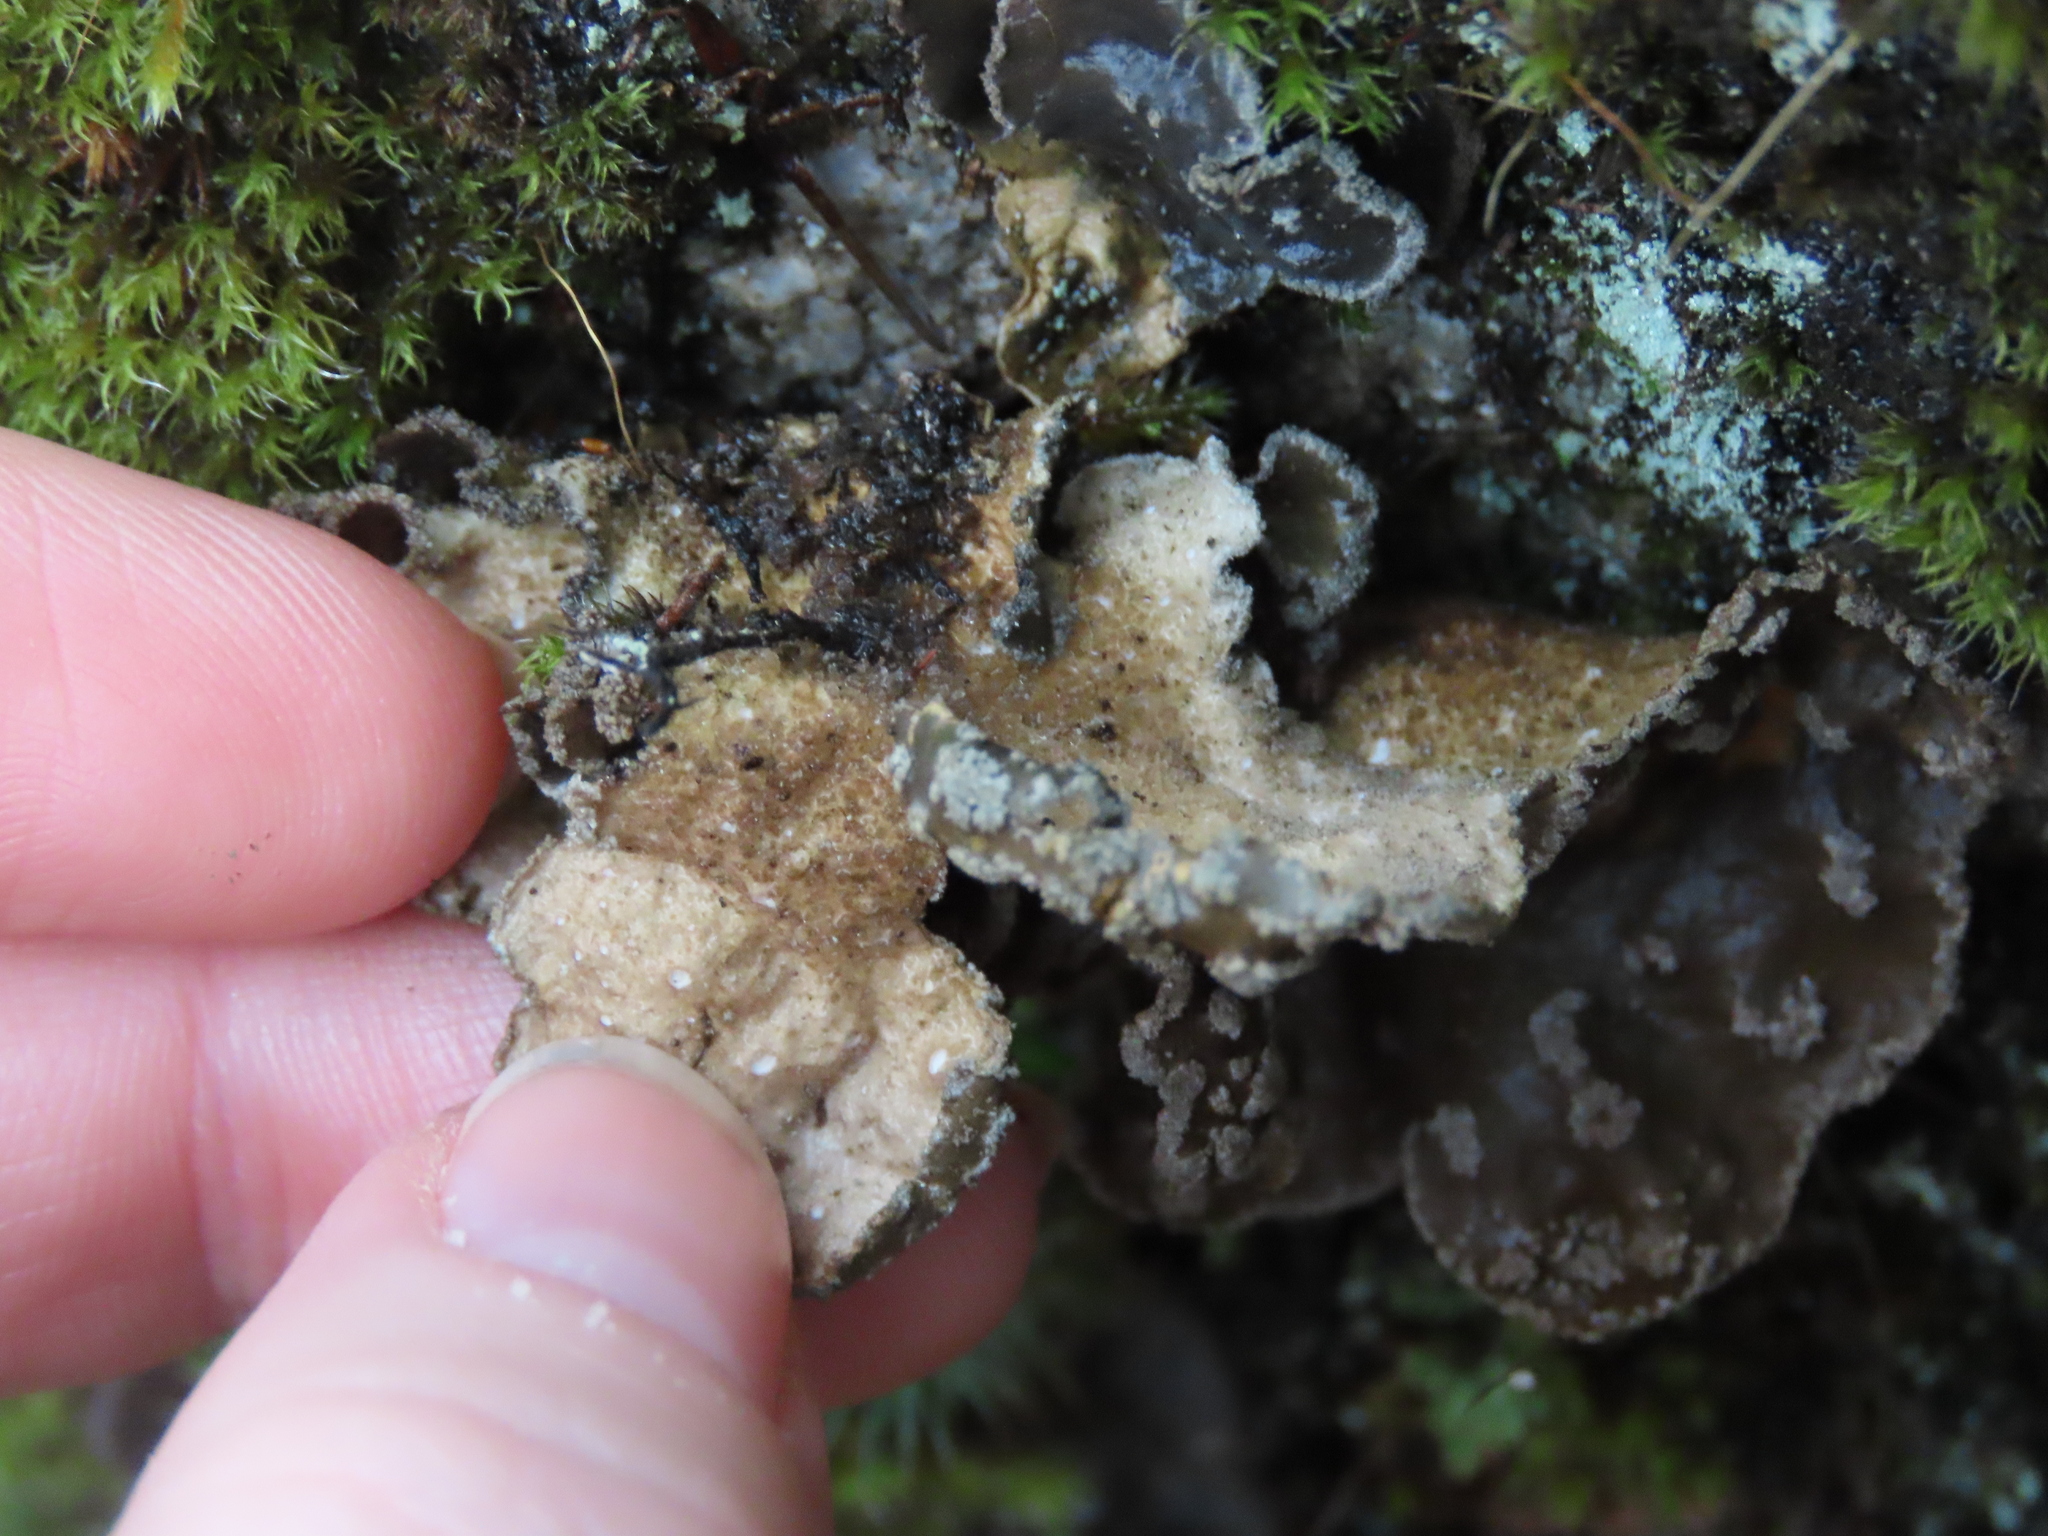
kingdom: Fungi
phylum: Ascomycota
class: Lecanoromycetes
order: Peltigerales
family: Lobariaceae
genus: Sticta
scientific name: Sticta limbata
